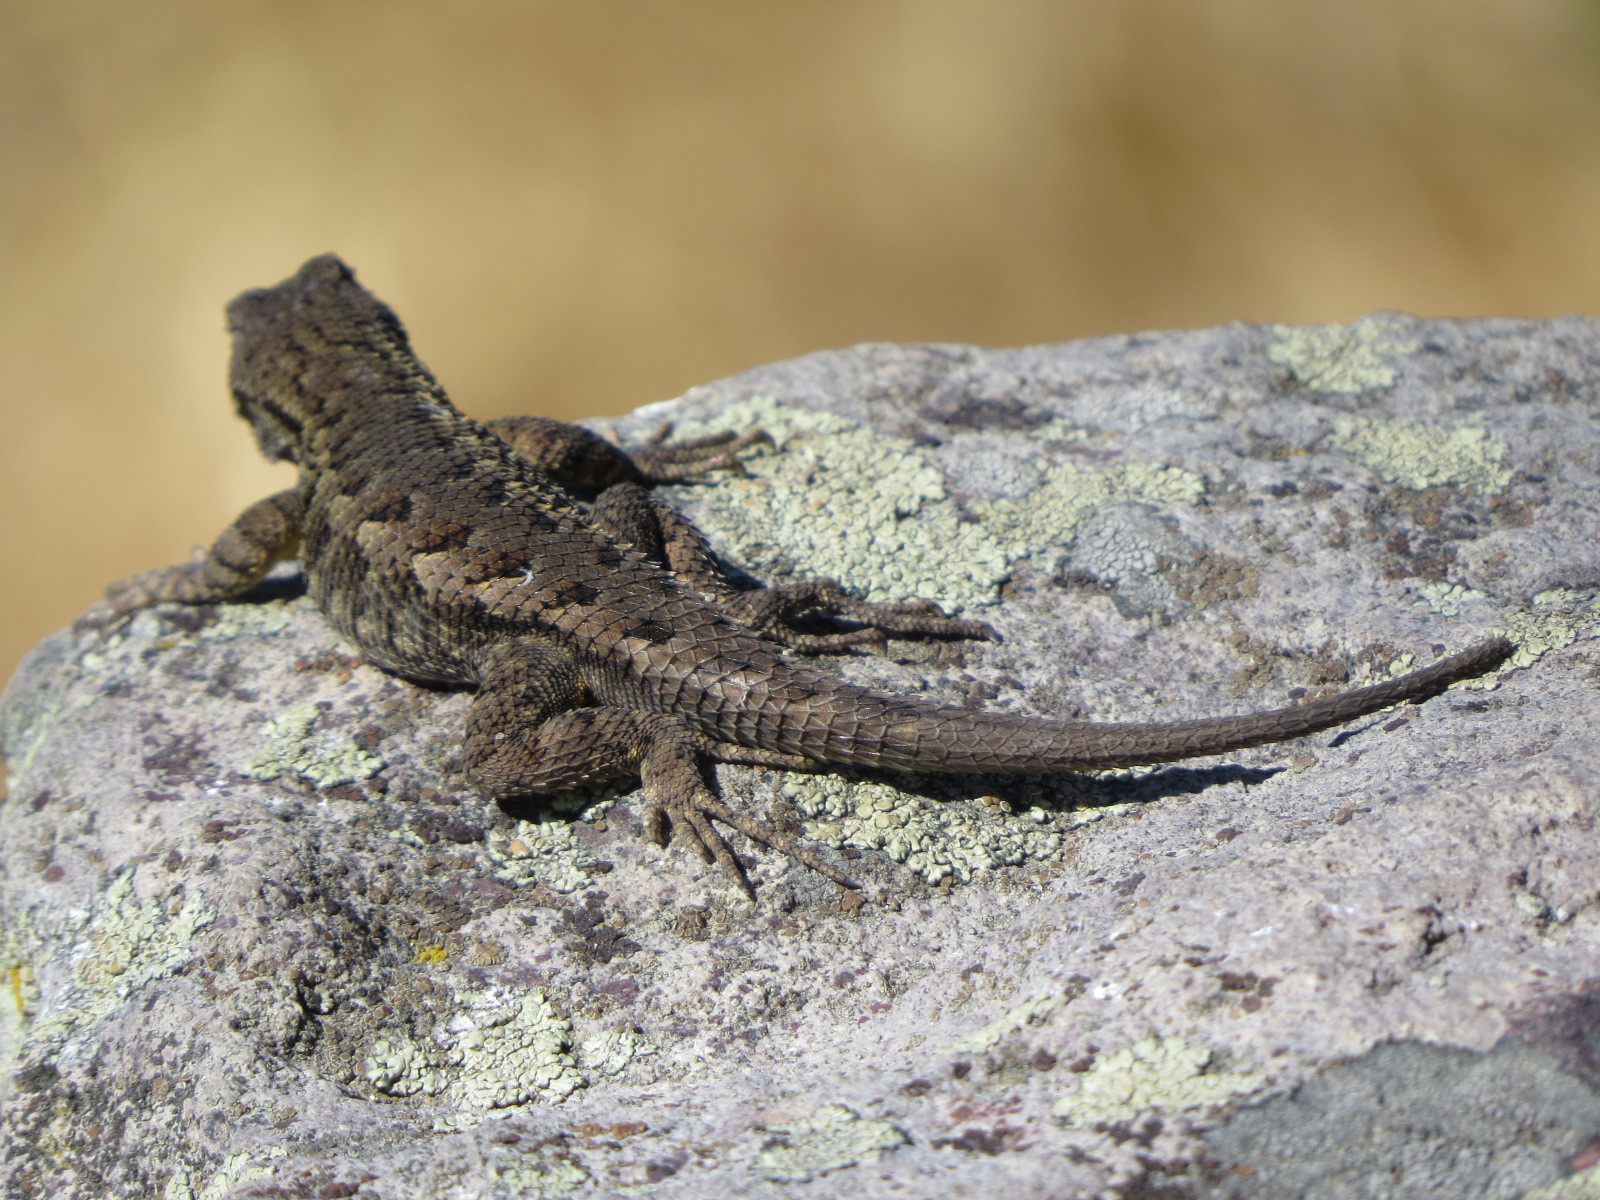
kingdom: Animalia
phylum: Chordata
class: Squamata
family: Phrynosomatidae
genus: Sceloporus
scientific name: Sceloporus occidentalis
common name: Western fence lizard
